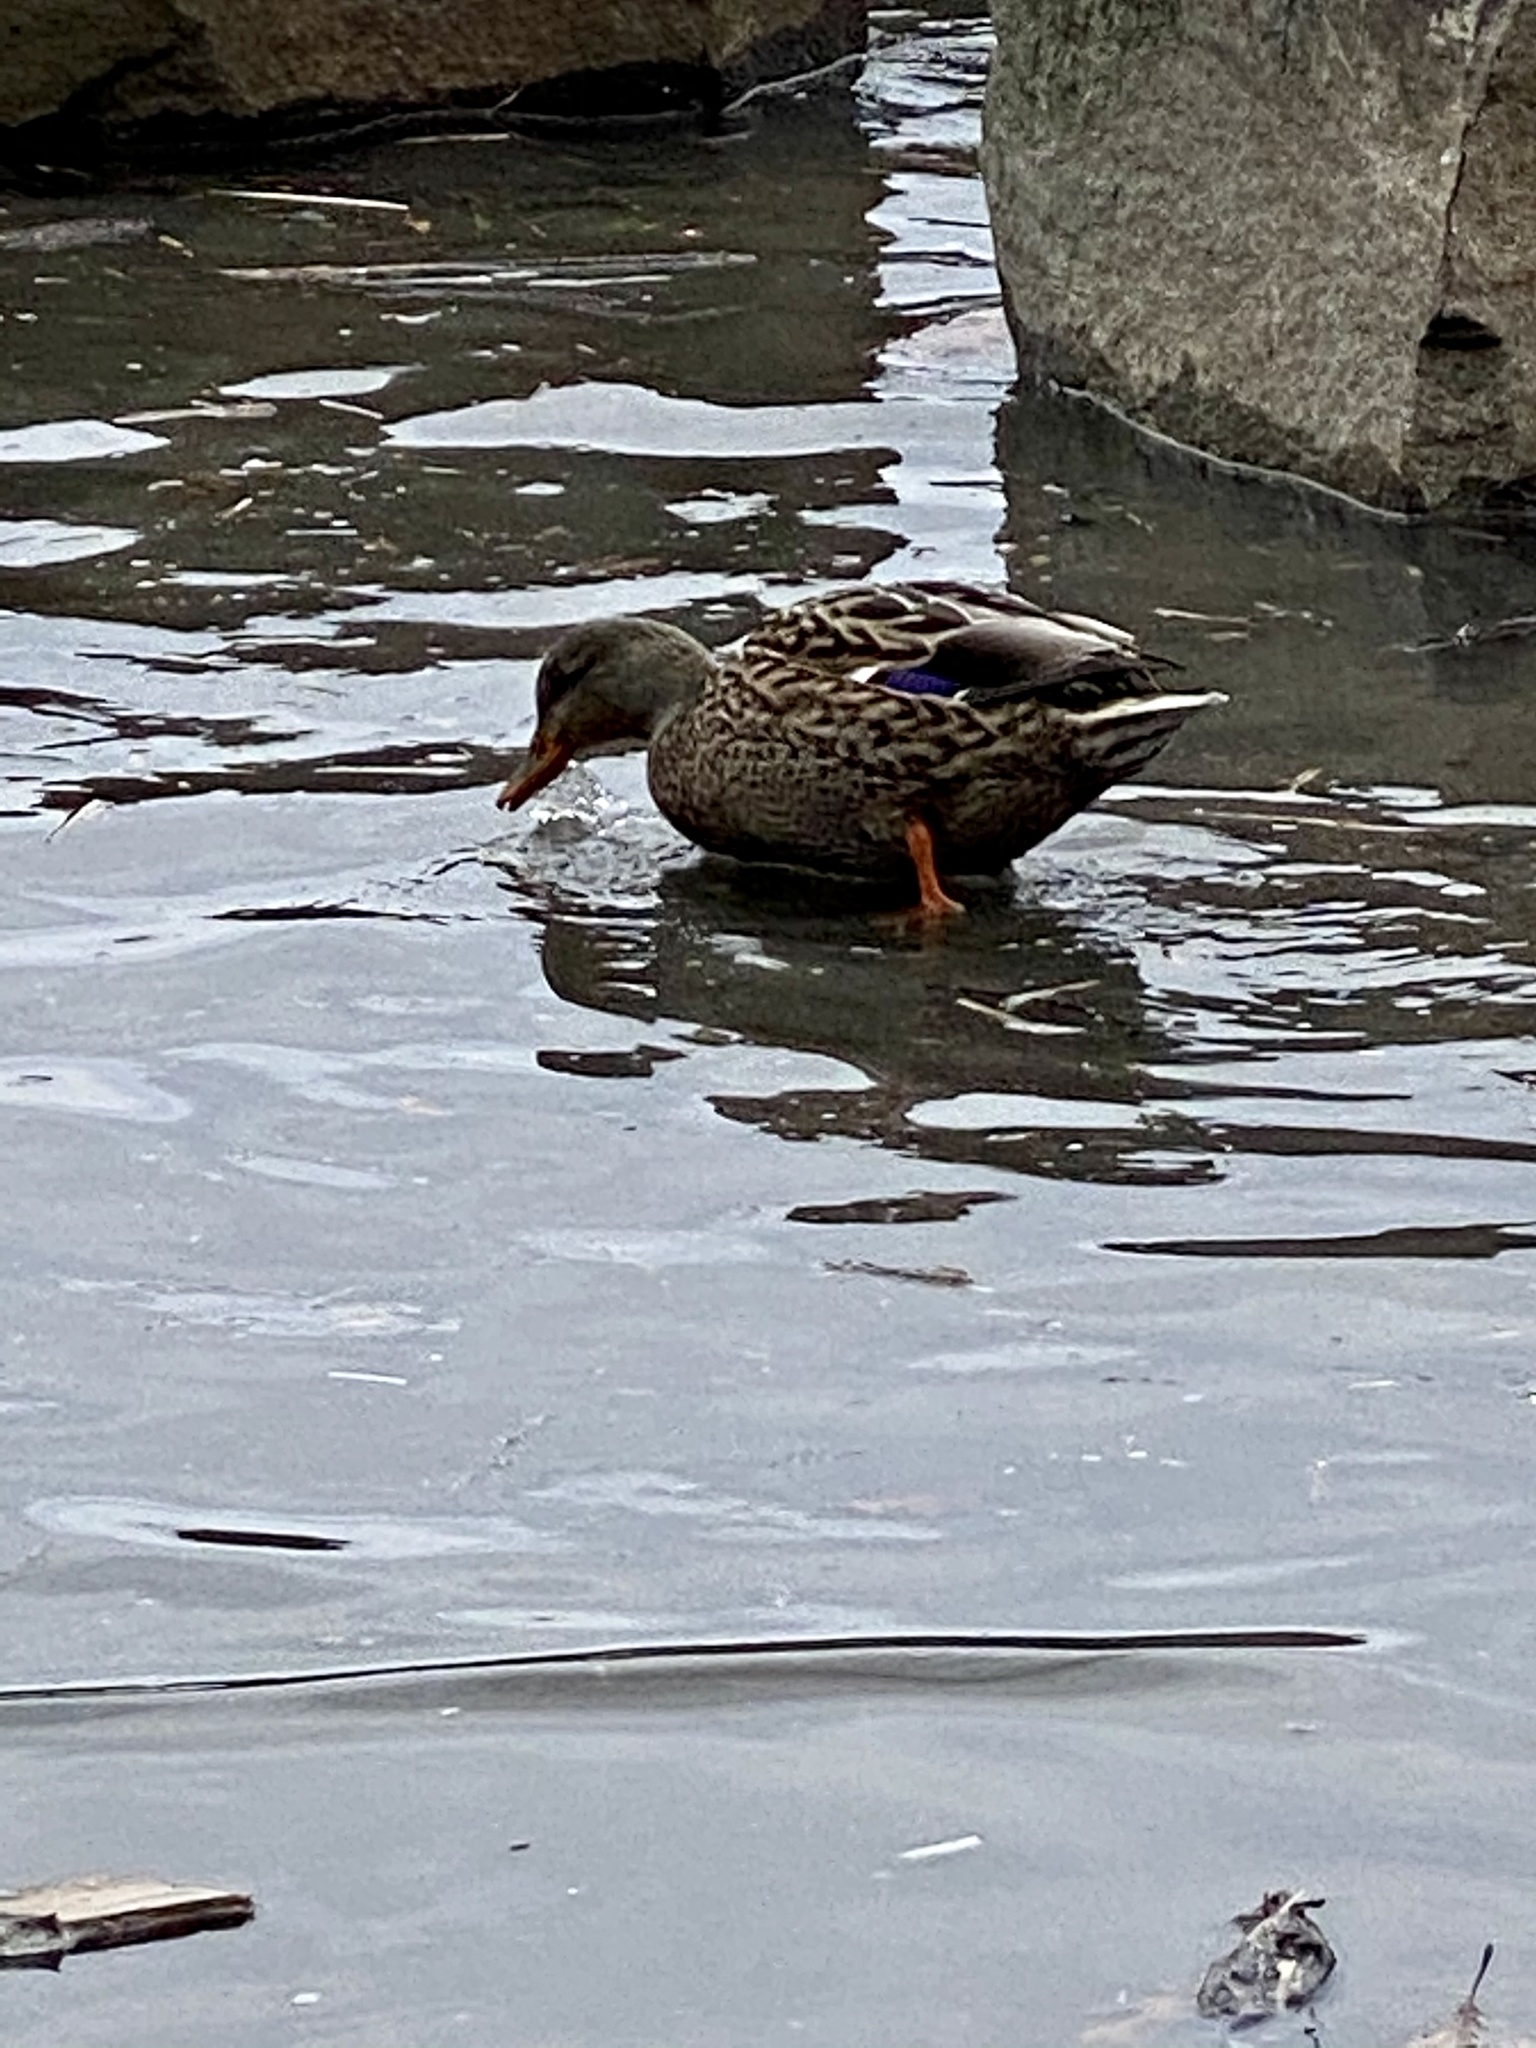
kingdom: Animalia
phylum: Chordata
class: Aves
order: Anseriformes
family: Anatidae
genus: Anas
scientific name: Anas platyrhynchos
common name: Mallard
